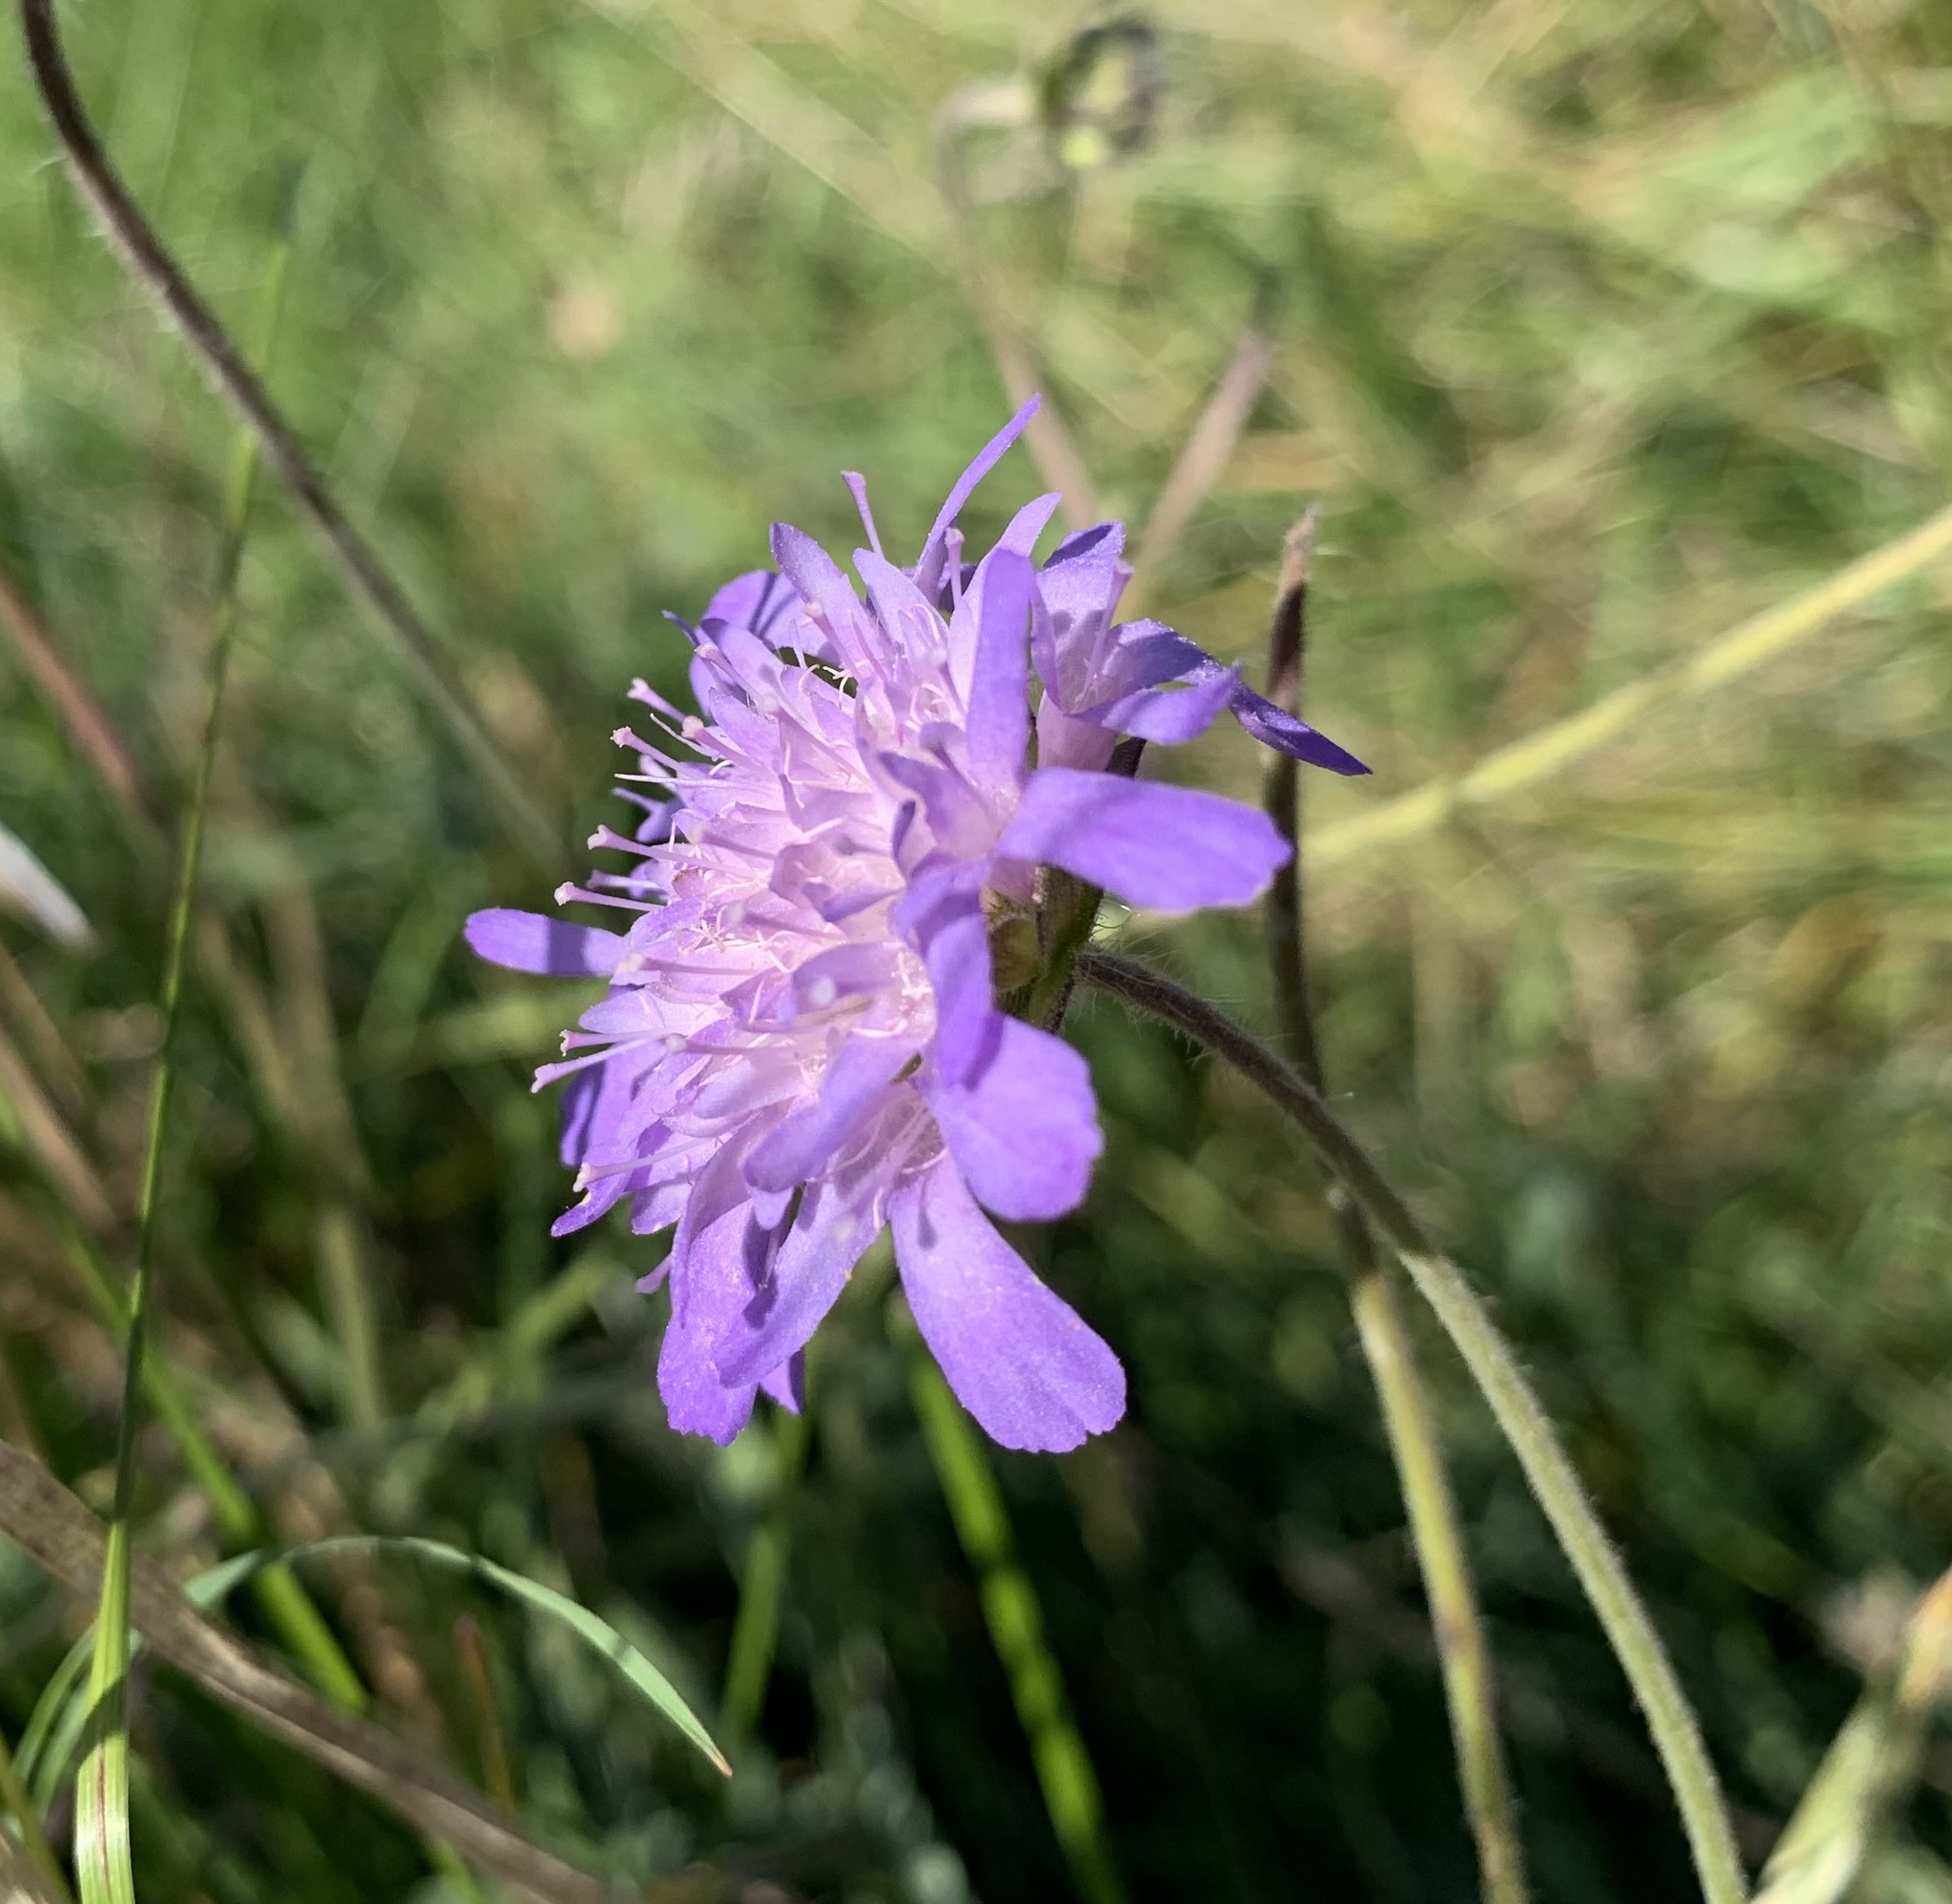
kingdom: Plantae
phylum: Tracheophyta
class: Magnoliopsida
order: Dipsacales
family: Caprifoliaceae
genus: Knautia
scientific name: Knautia arvensis
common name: Field scabiosa
